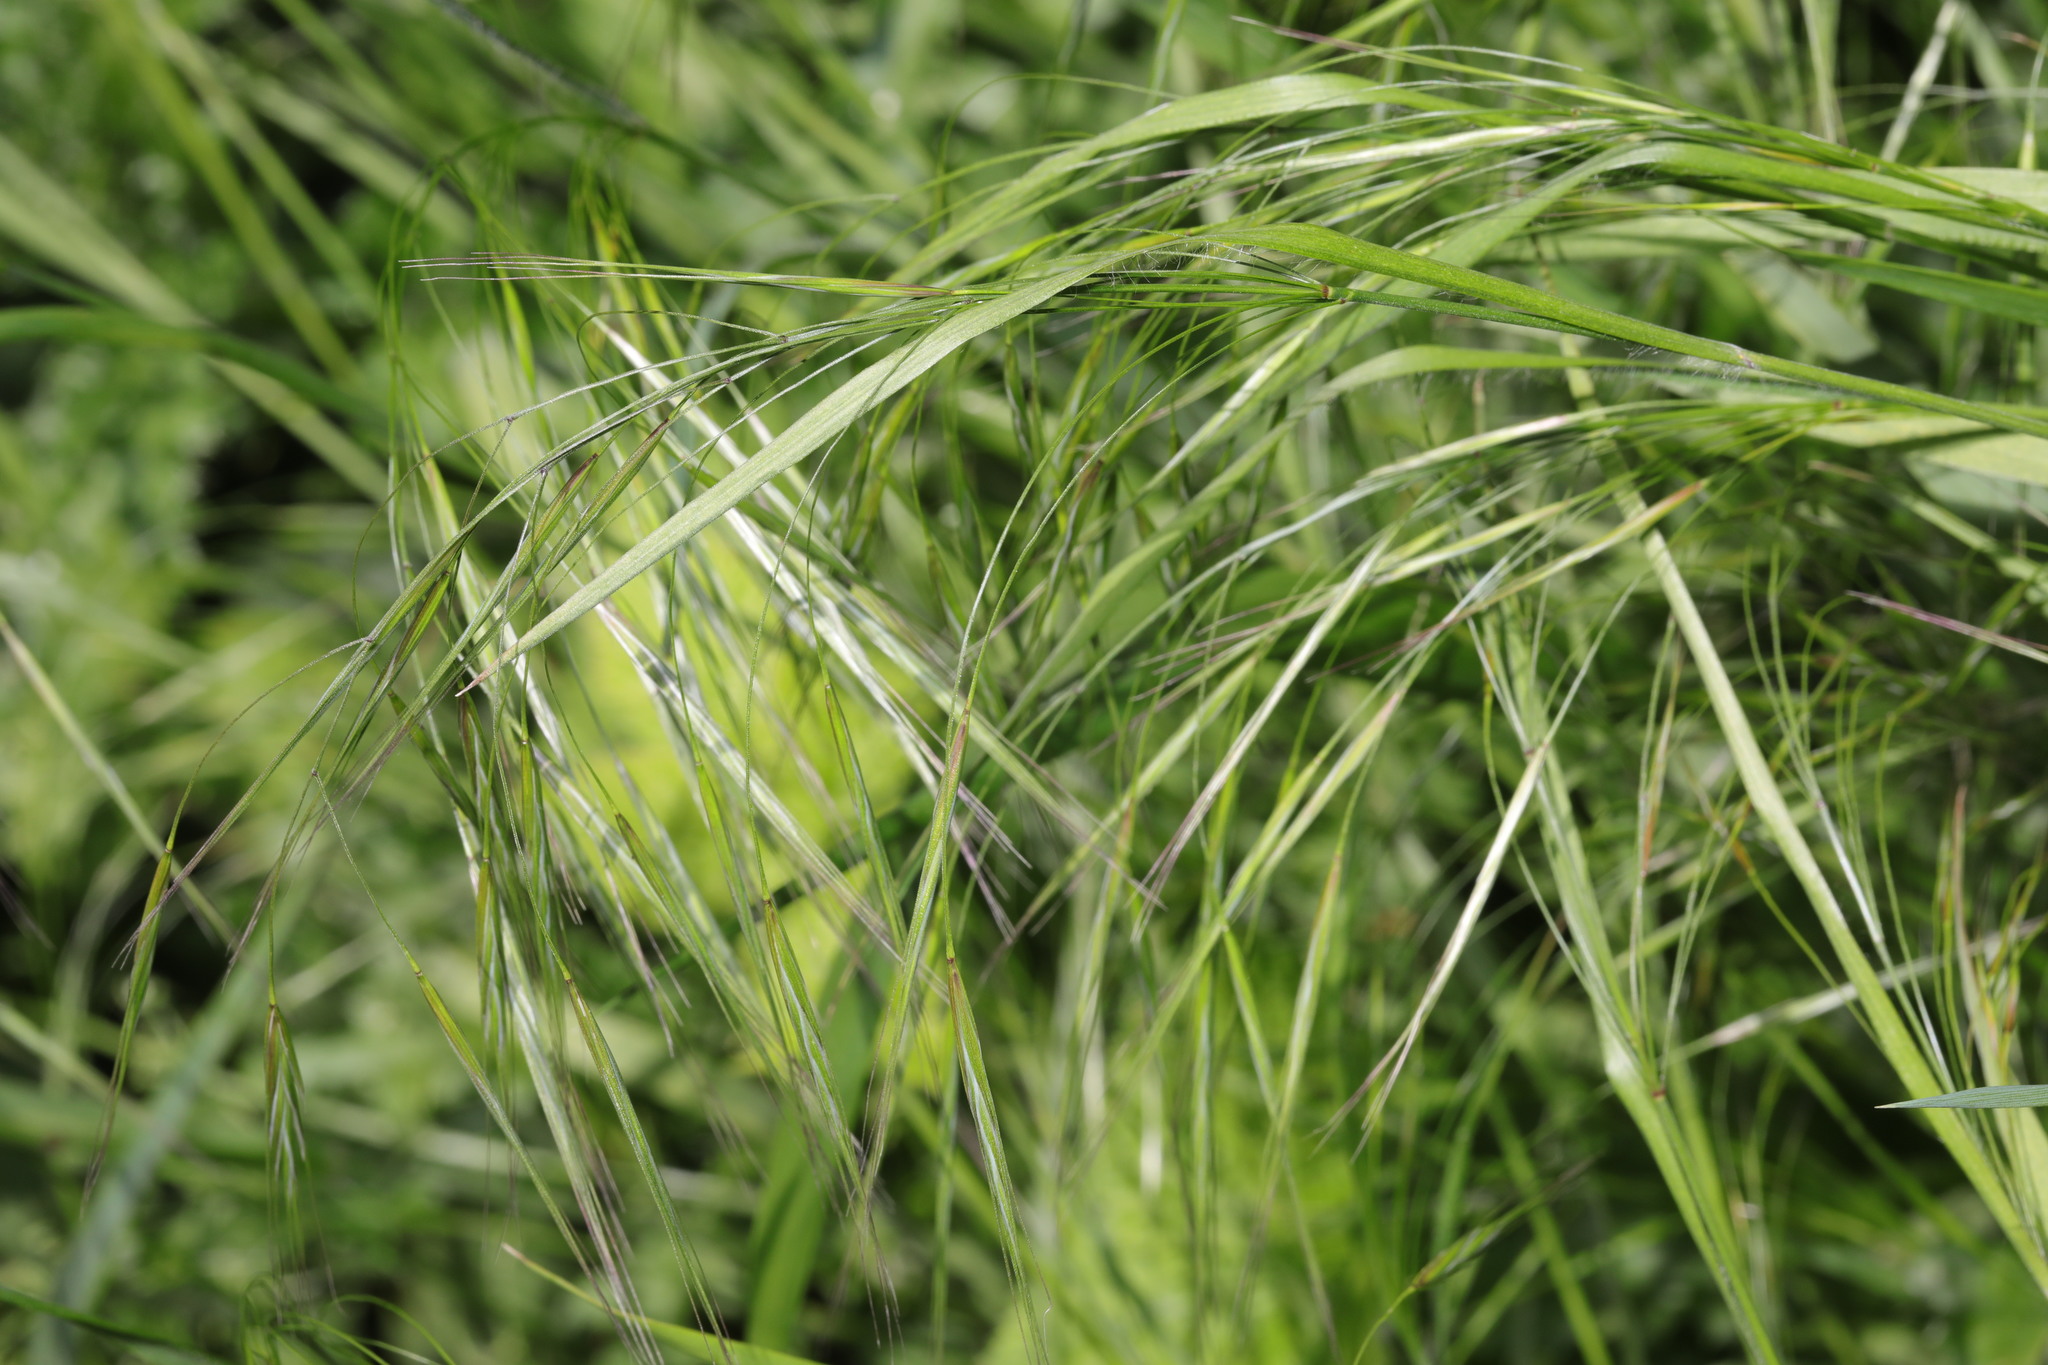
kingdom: Plantae
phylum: Tracheophyta
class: Liliopsida
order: Poales
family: Poaceae
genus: Bromus
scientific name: Bromus sterilis
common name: Poverty brome
